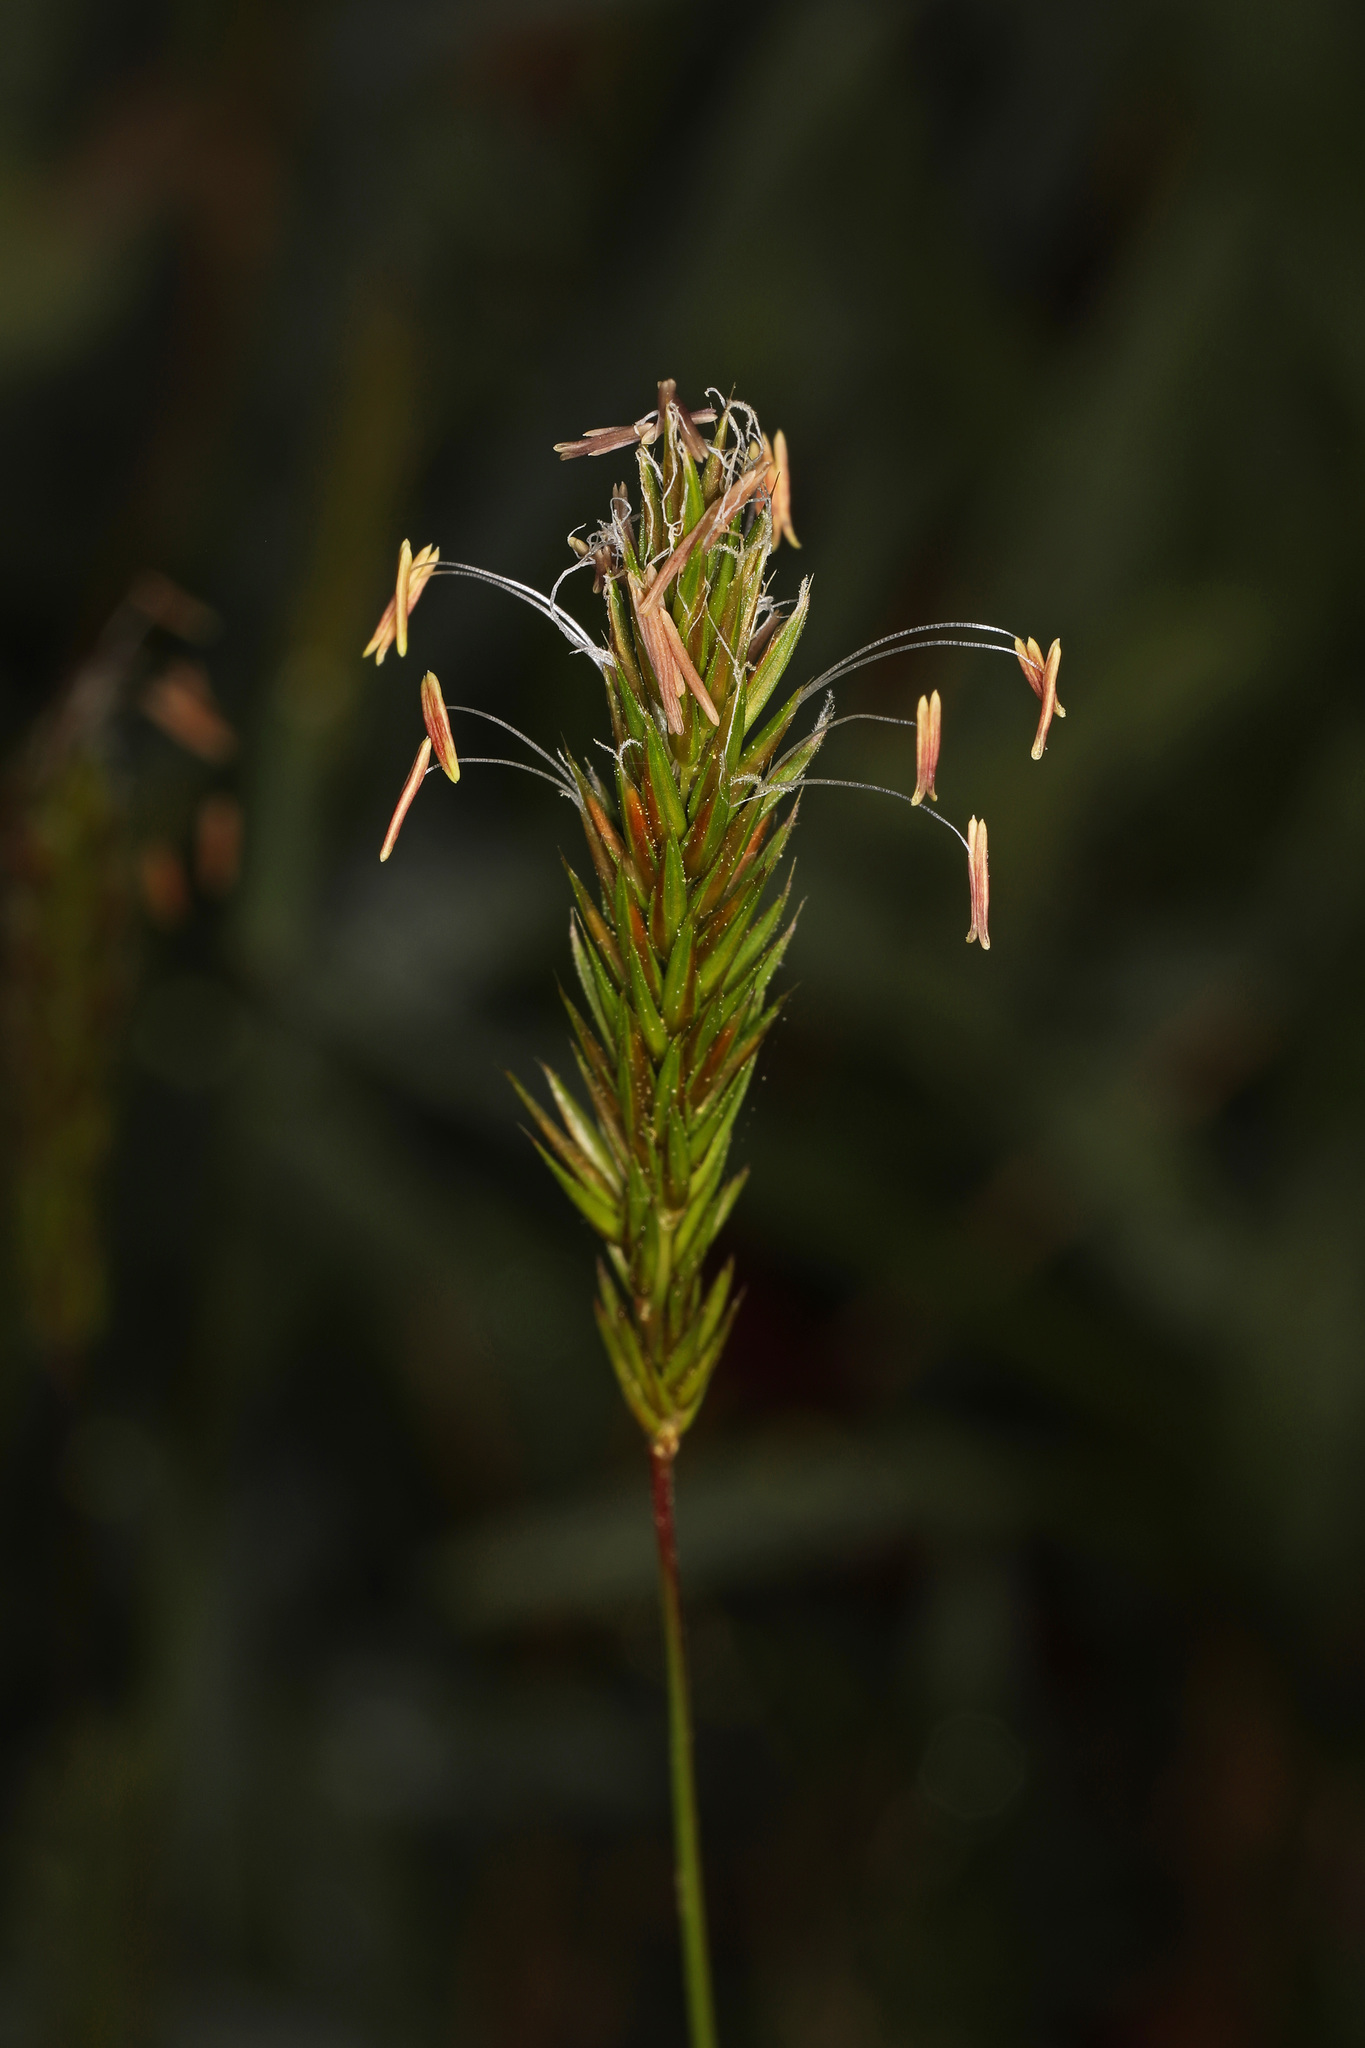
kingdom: Plantae
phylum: Tracheophyta
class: Liliopsida
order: Poales
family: Poaceae
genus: Anthoxanthum
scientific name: Anthoxanthum odoratum
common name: Sweet vernalgrass
